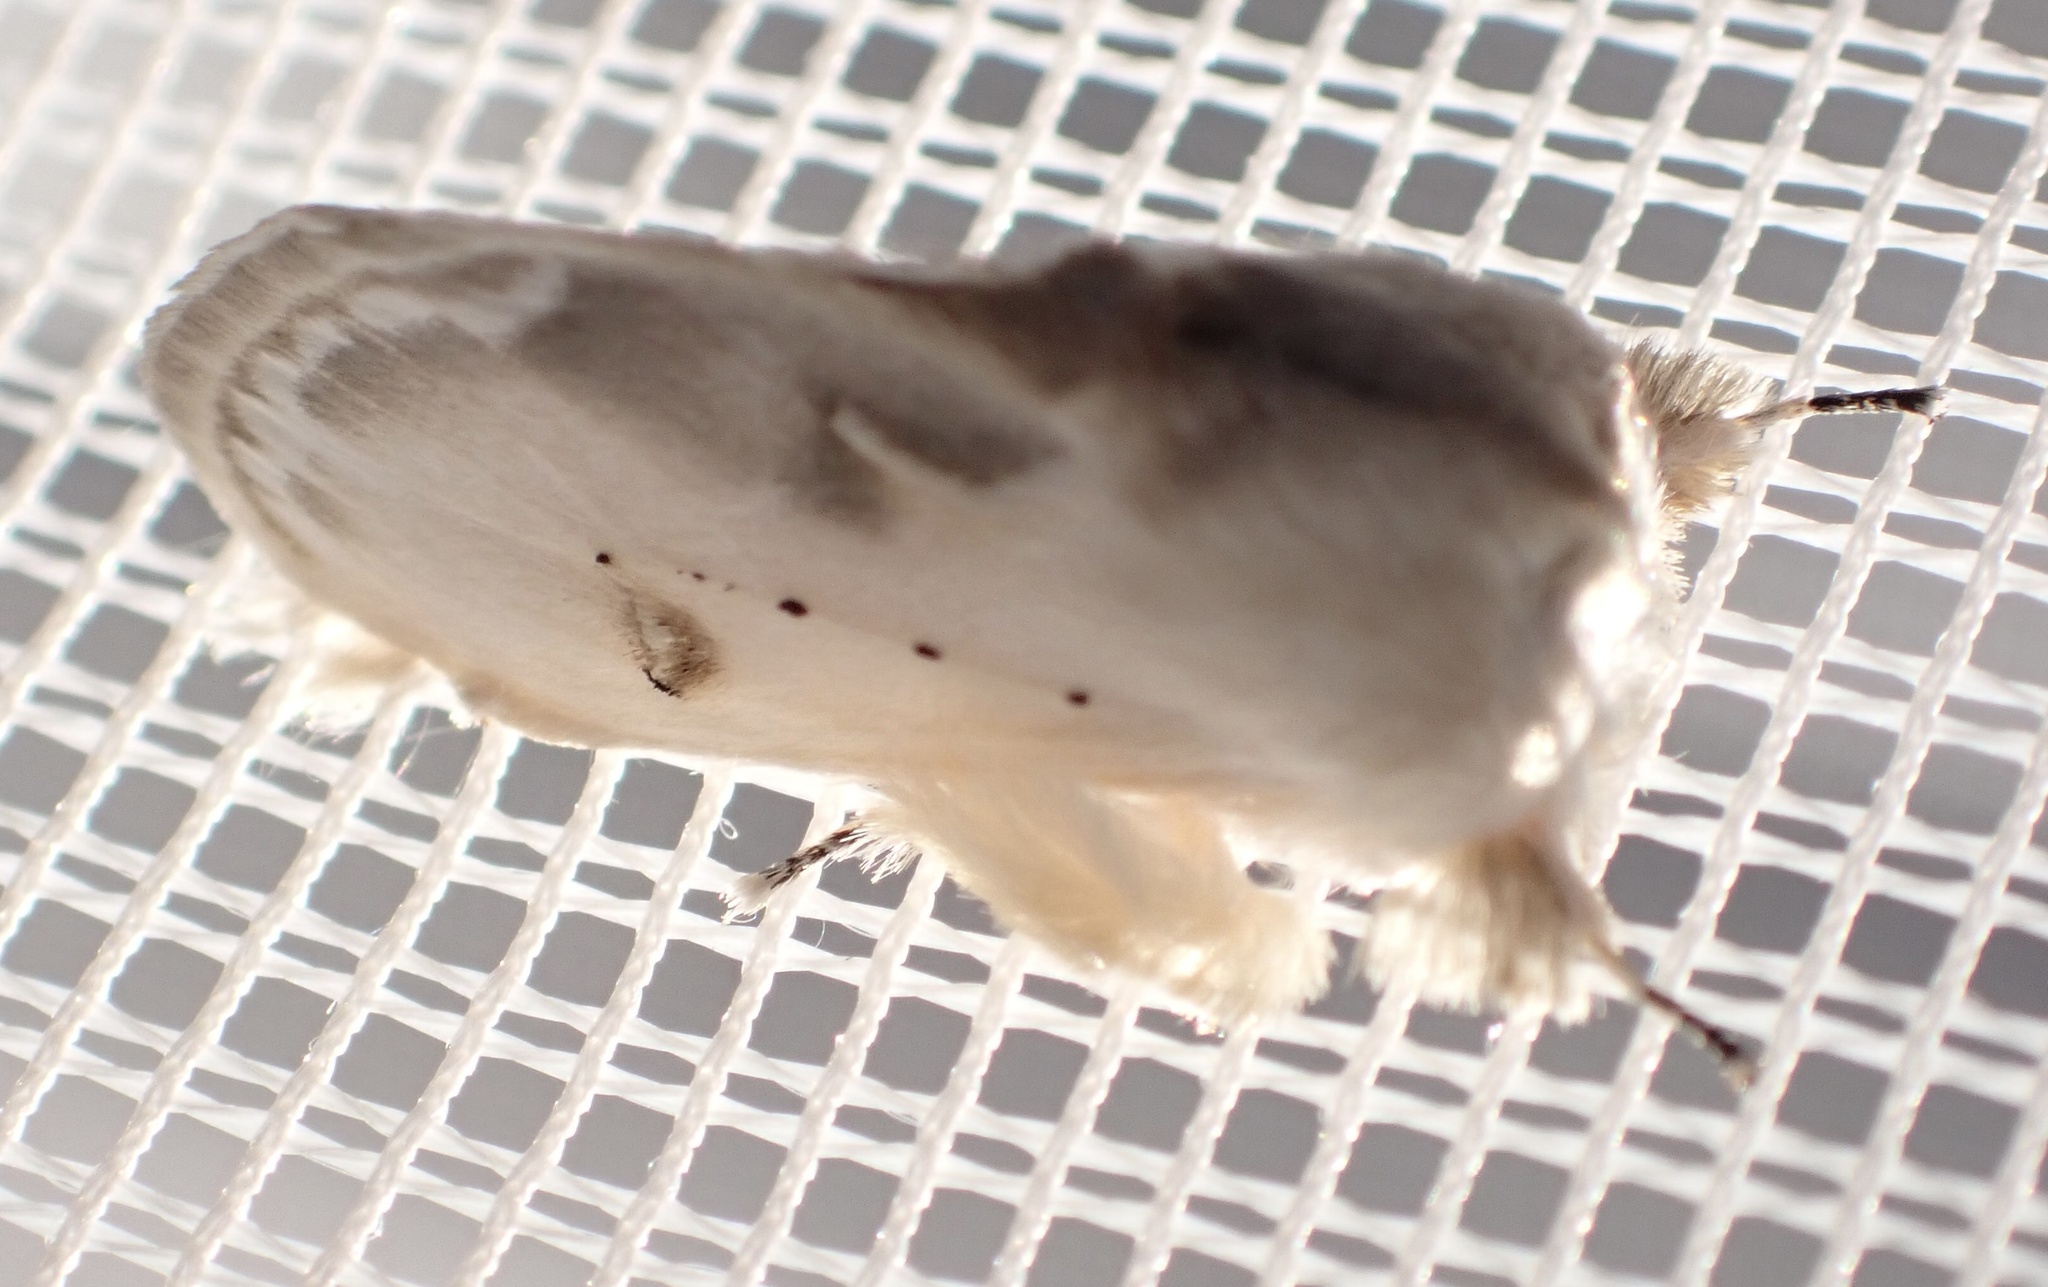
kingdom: Animalia
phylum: Arthropoda
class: Insecta
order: Lepidoptera
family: Erebidae
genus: Naroma
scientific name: Naroma varipes
